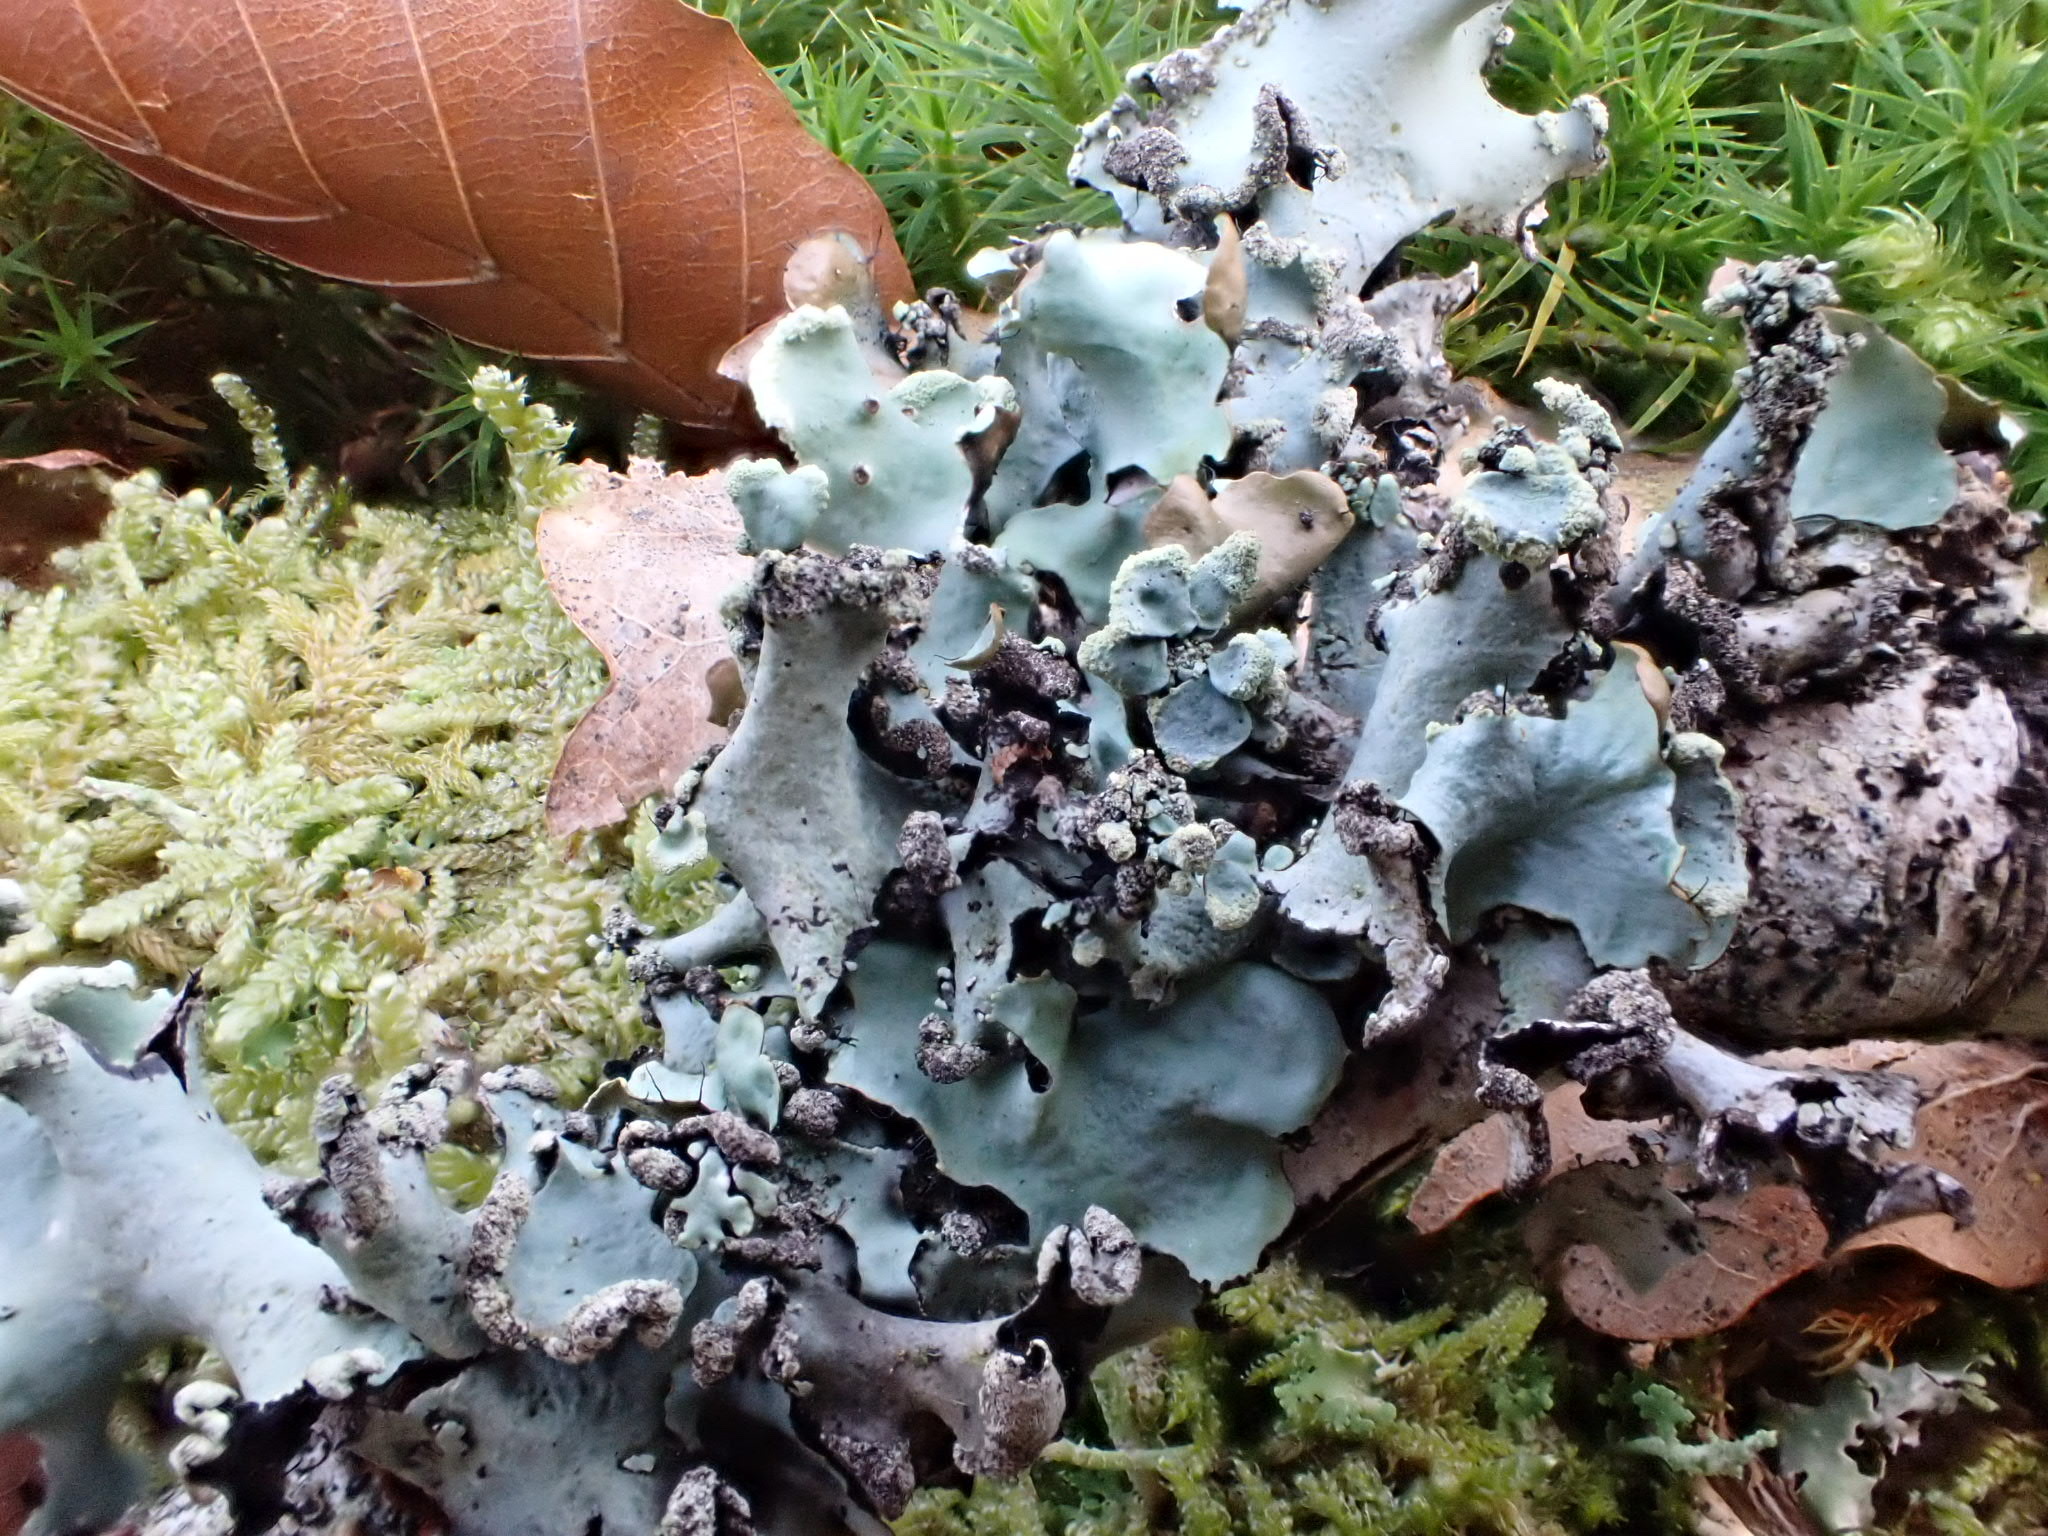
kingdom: Fungi
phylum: Ascomycota
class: Lecanoromycetes
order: Lecanorales
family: Parmeliaceae
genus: Parmotrema
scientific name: Parmotrema perlatum
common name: Black stone flower
